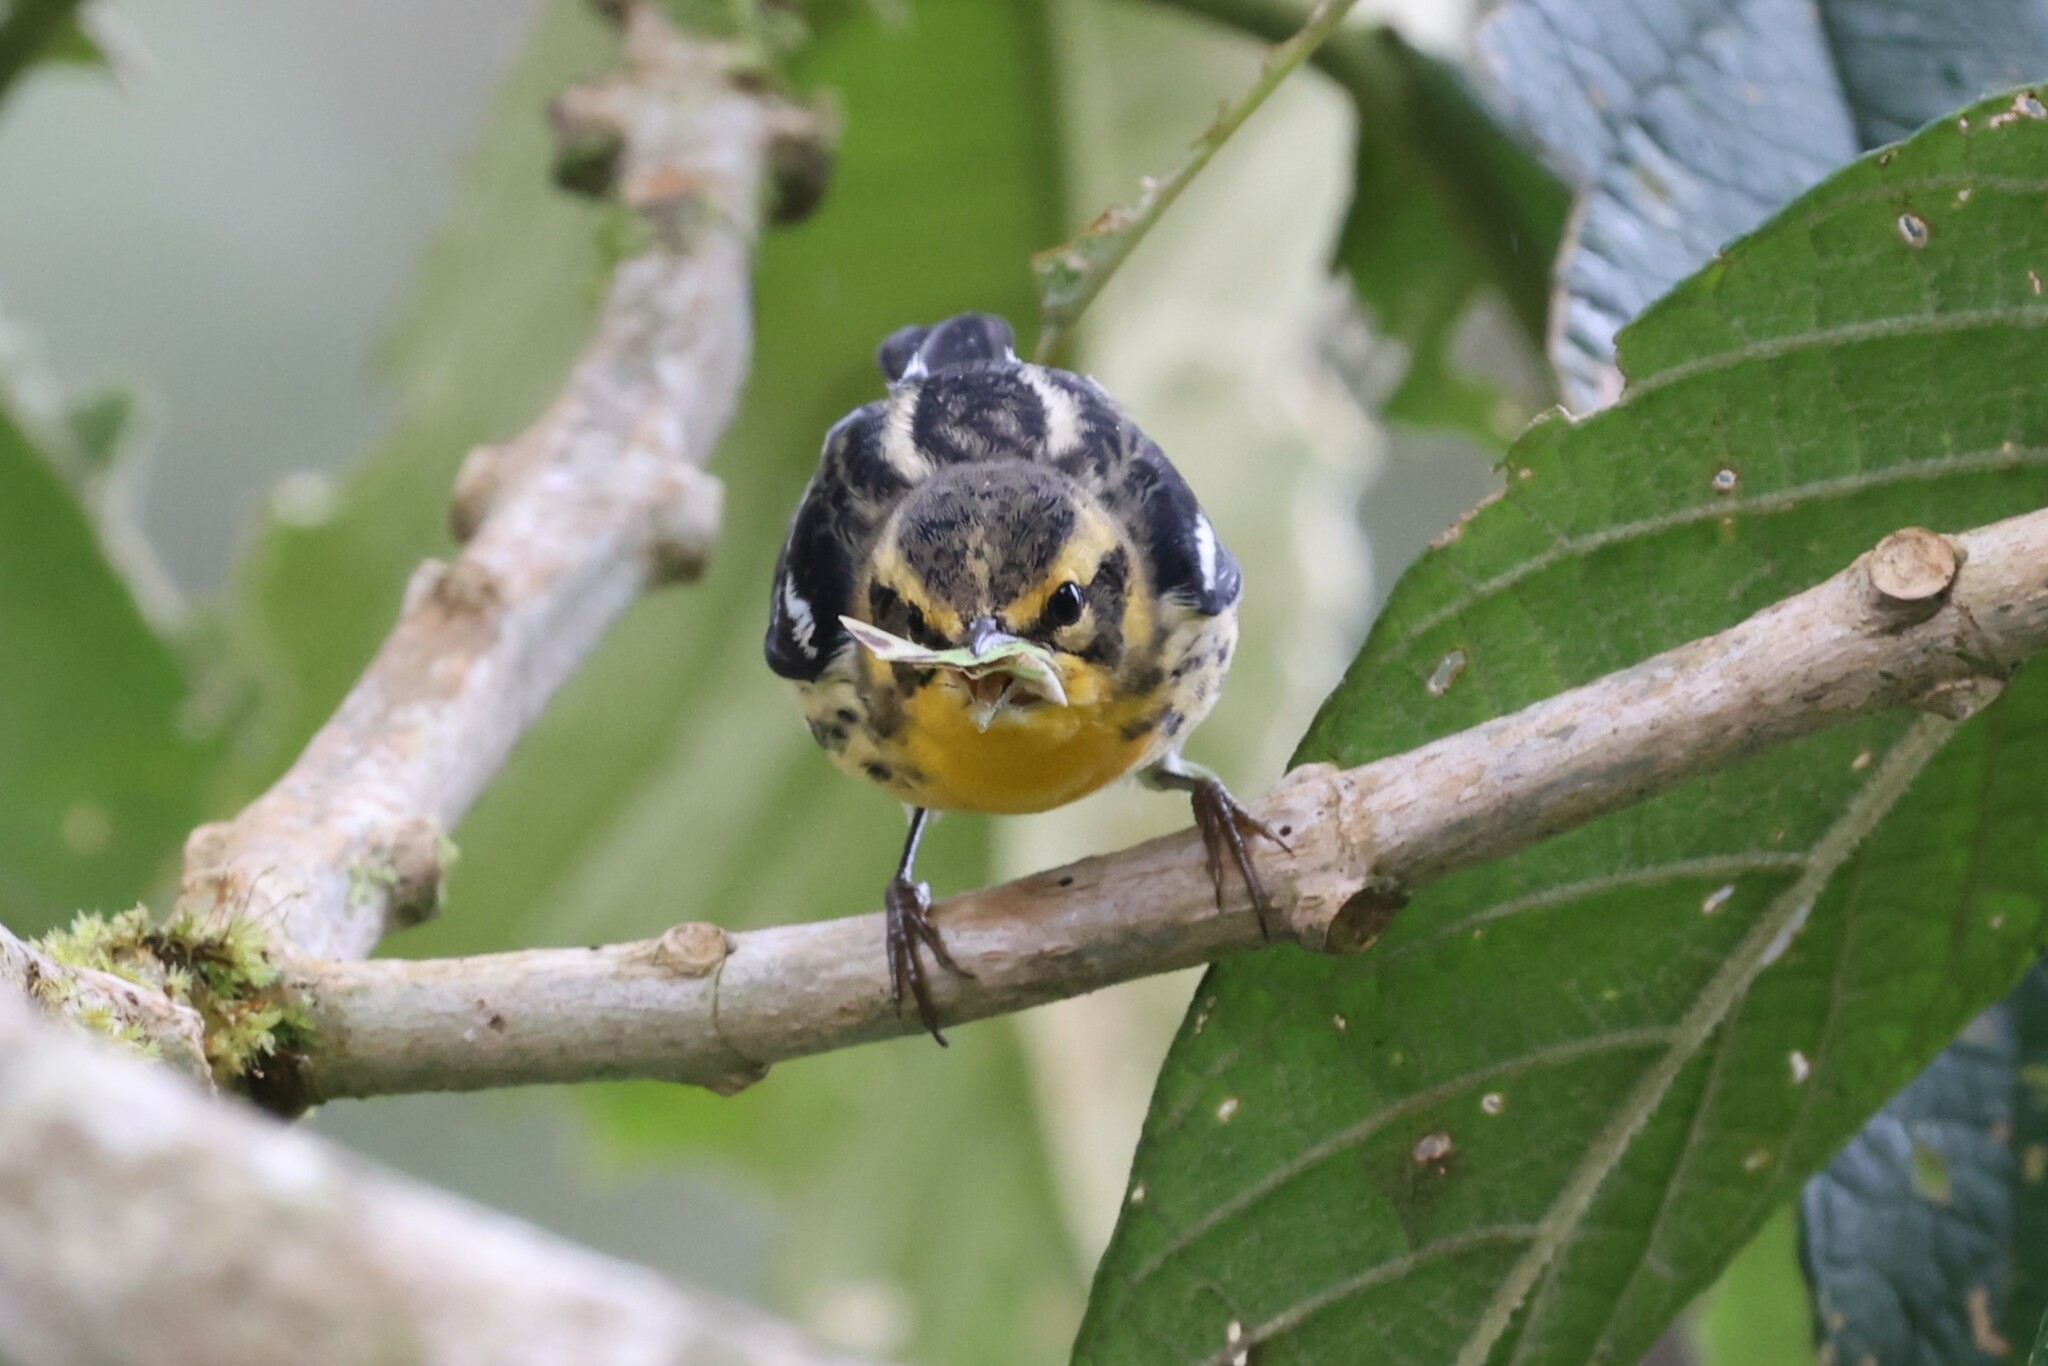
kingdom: Animalia
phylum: Chordata
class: Aves
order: Passeriformes
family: Parulidae
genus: Setophaga
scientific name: Setophaga fusca
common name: Blackburnian warbler
